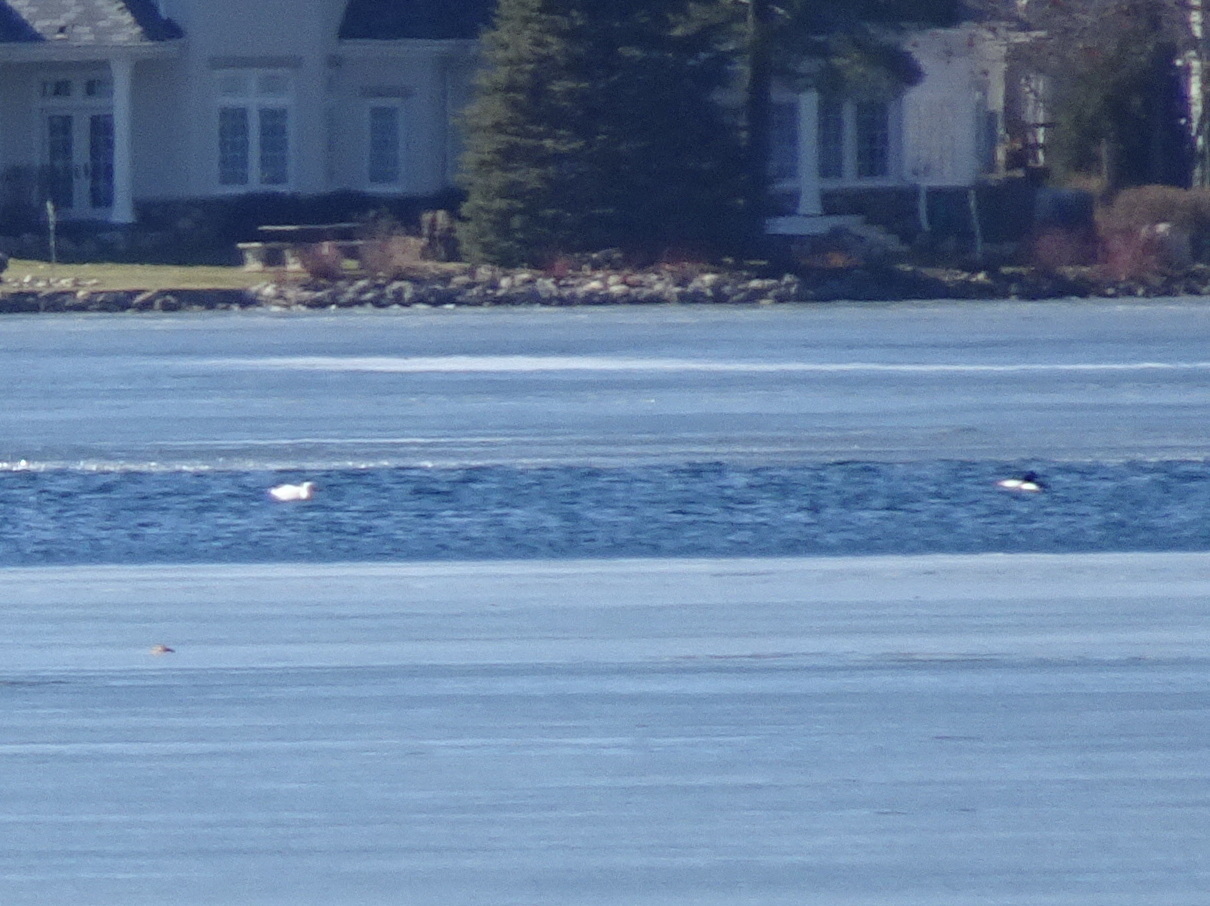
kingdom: Animalia
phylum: Chordata
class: Aves
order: Anseriformes
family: Anatidae
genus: Mergus
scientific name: Mergus merganser
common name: Common merganser
